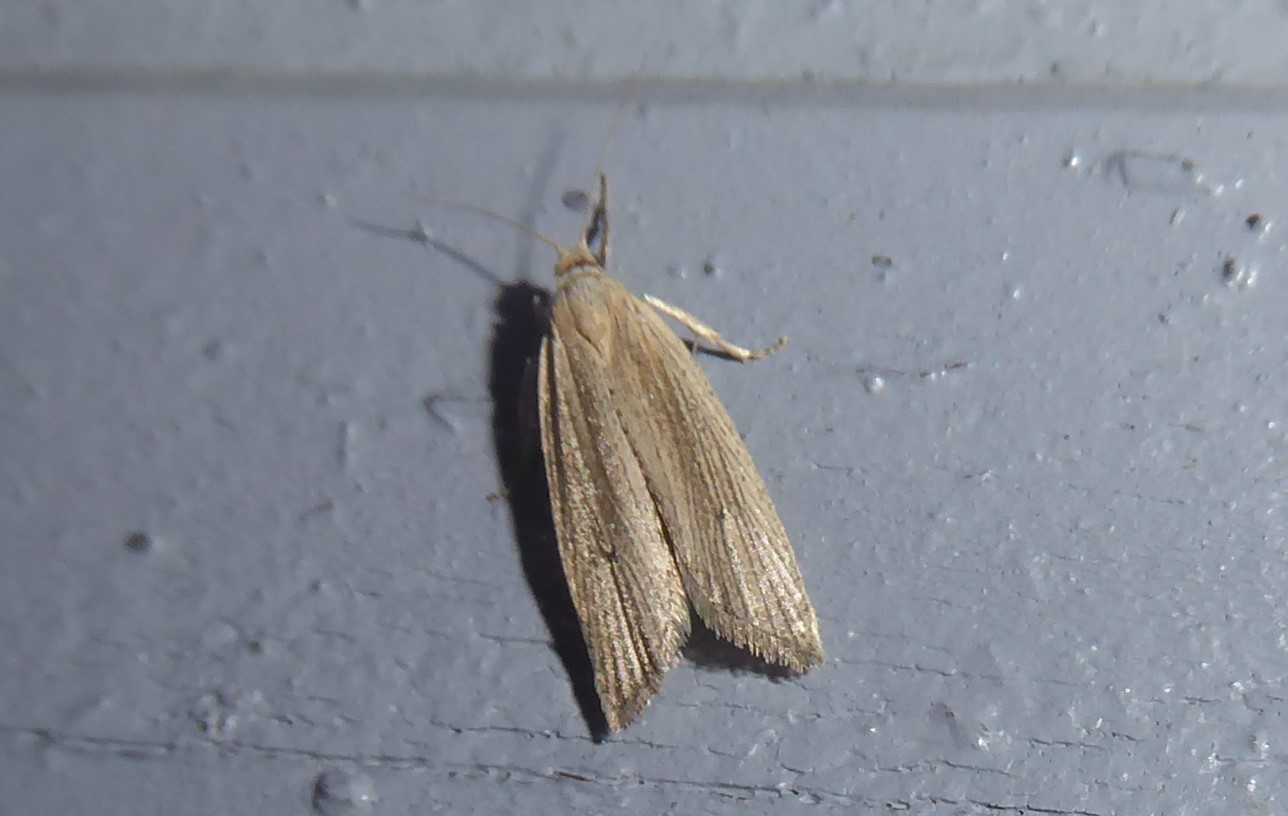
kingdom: Animalia
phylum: Arthropoda
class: Insecta
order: Lepidoptera
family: Tortricidae
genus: Bactra
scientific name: Bactra noteraula
